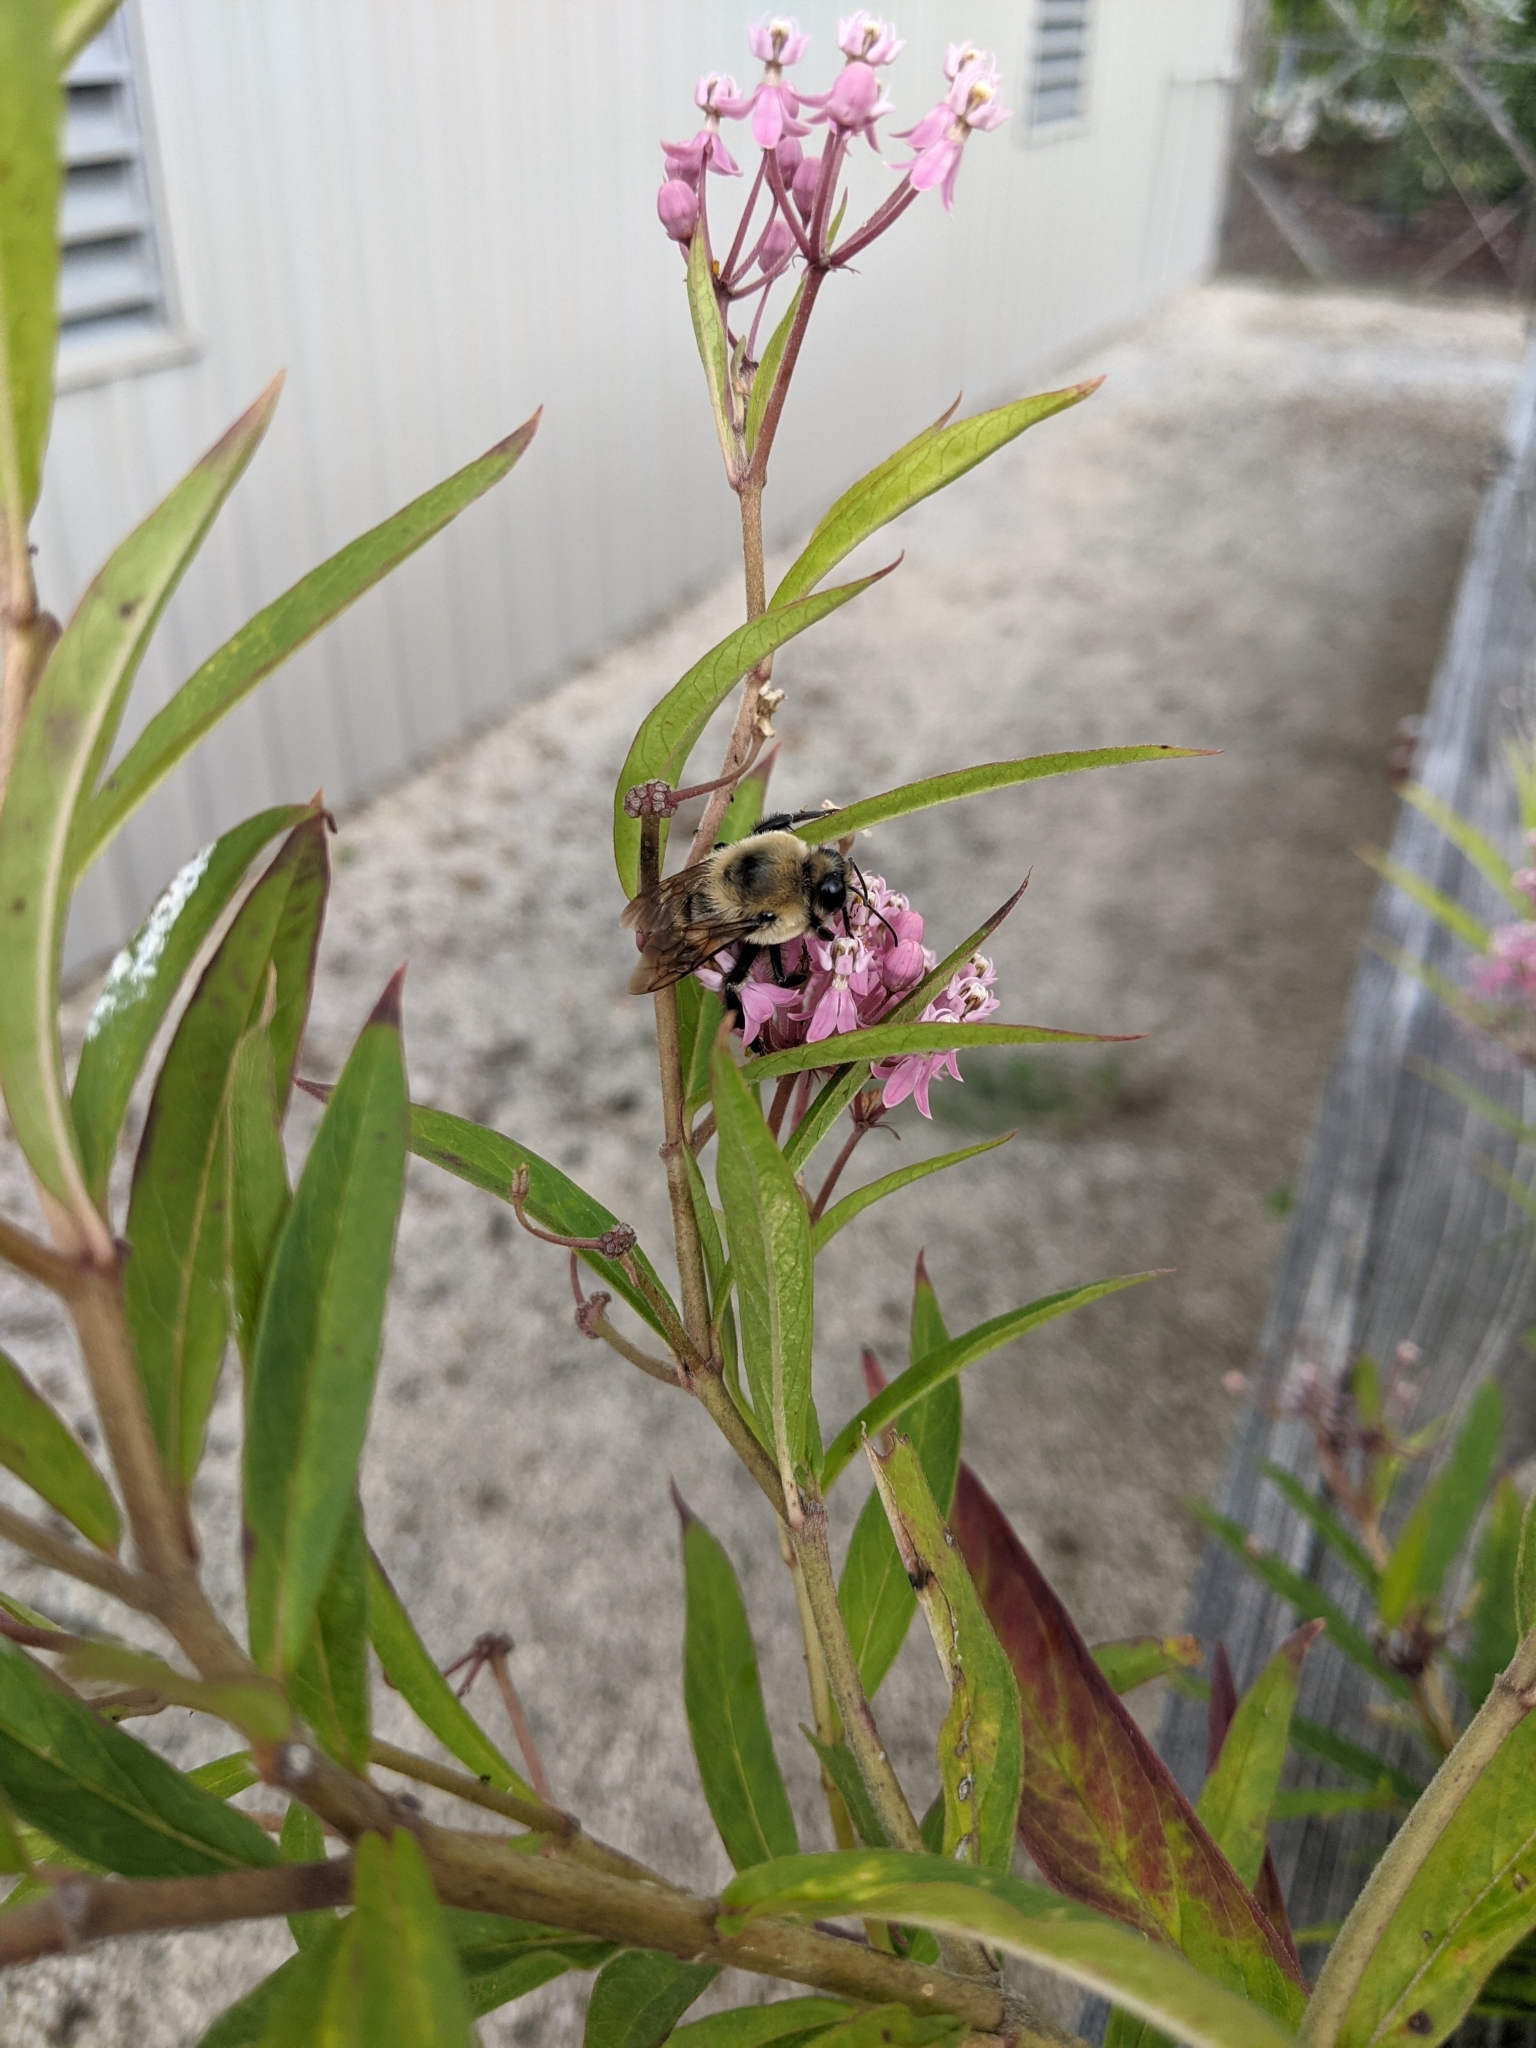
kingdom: Animalia
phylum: Arthropoda
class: Insecta
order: Hymenoptera
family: Apidae
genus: Bombus
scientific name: Bombus griseocollis
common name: Brown-belted bumble bee
